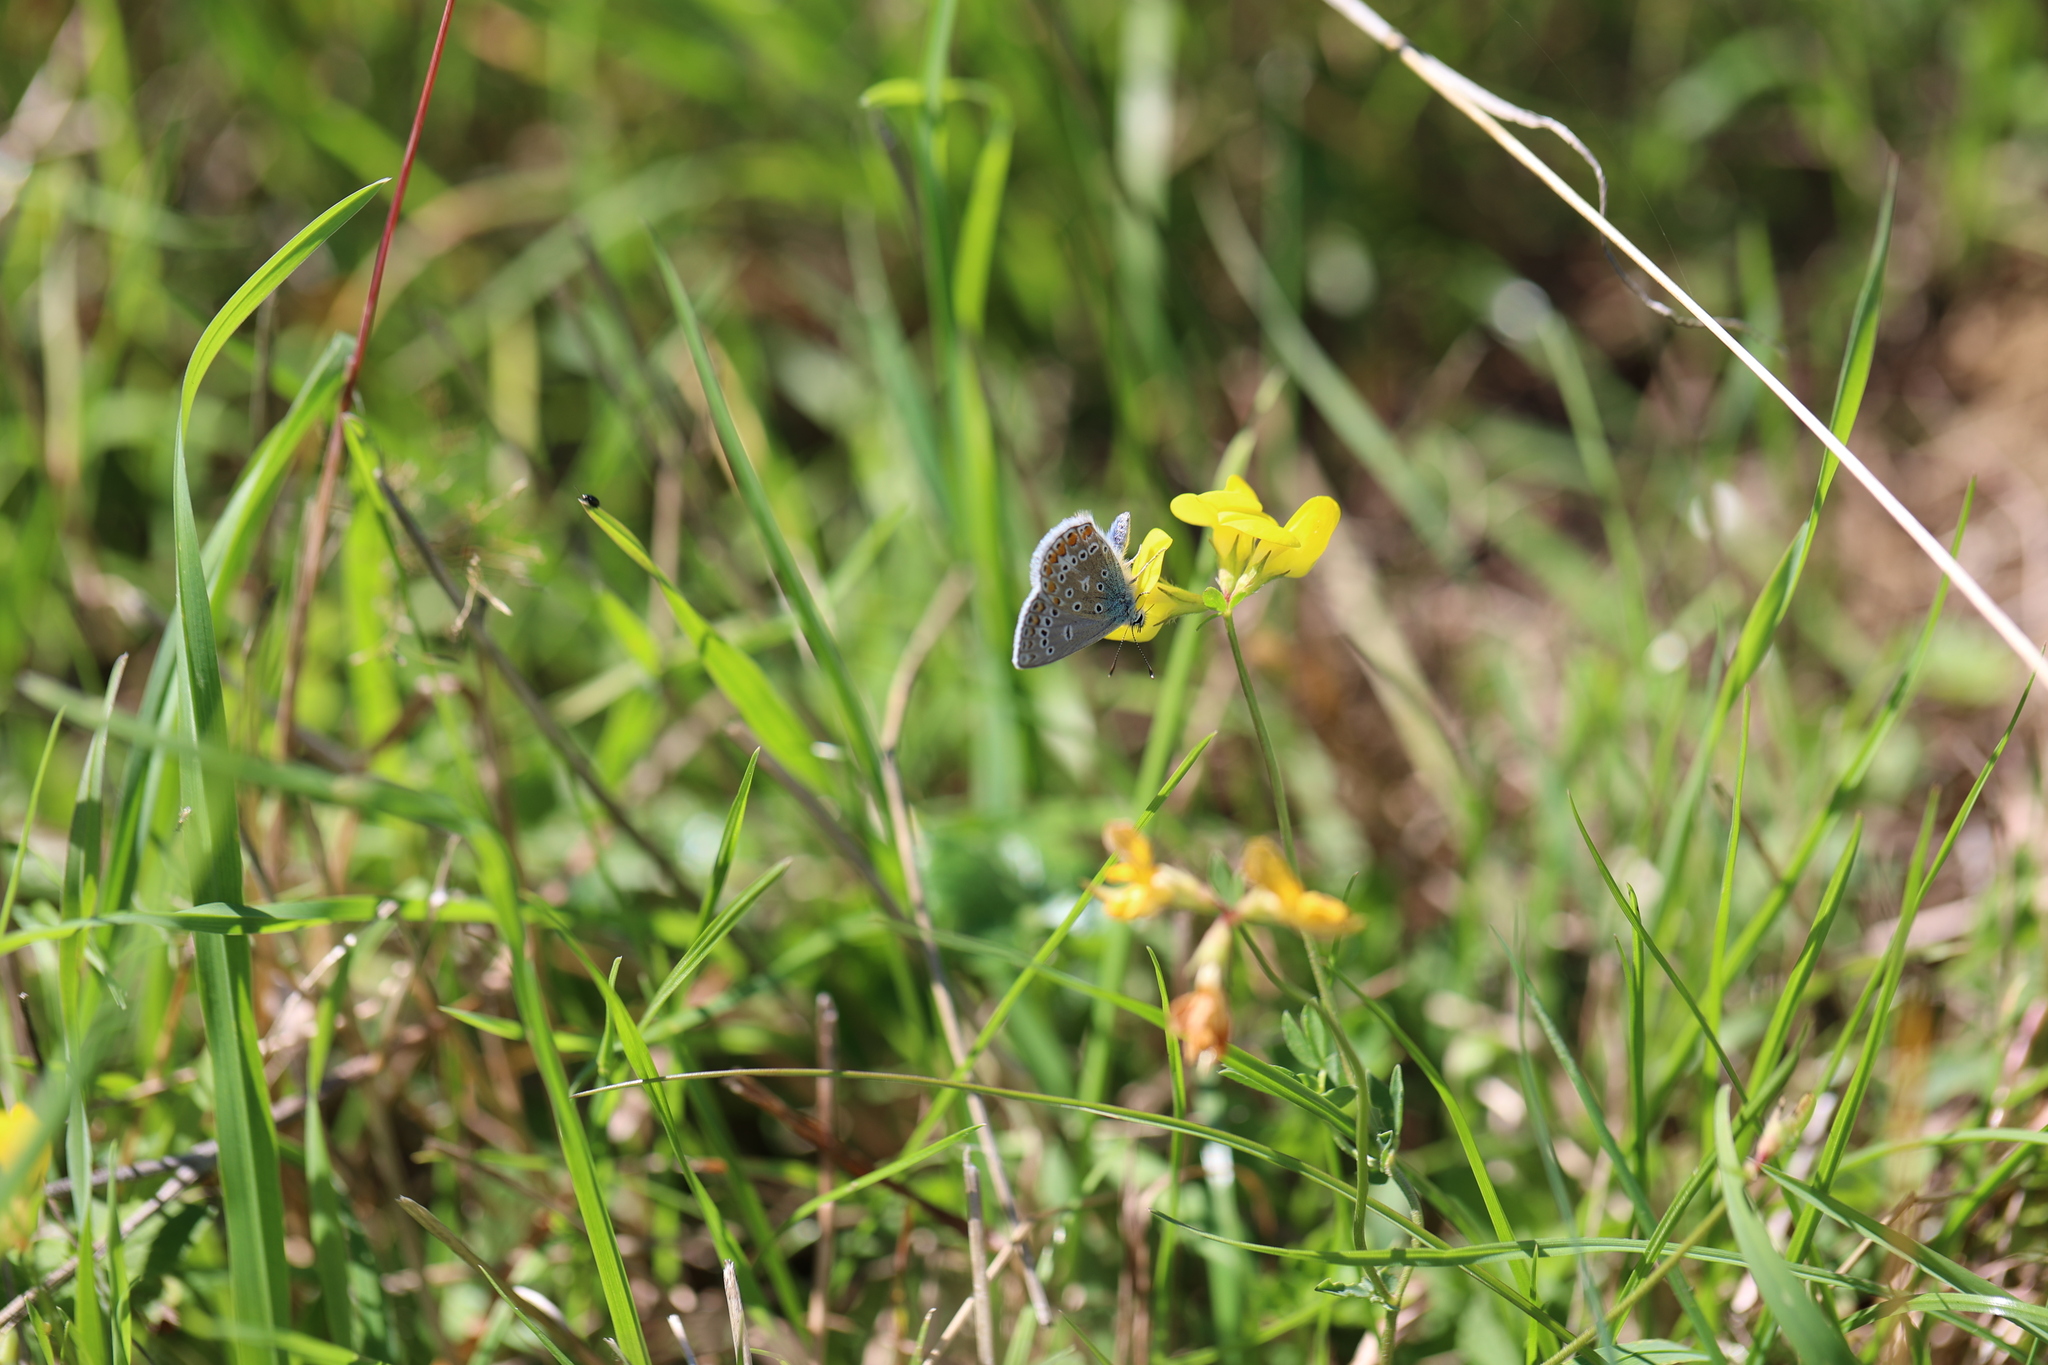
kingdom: Animalia
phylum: Arthropoda
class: Insecta
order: Lepidoptera
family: Lycaenidae
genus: Polyommatus
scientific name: Polyommatus icarus
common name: Common blue
